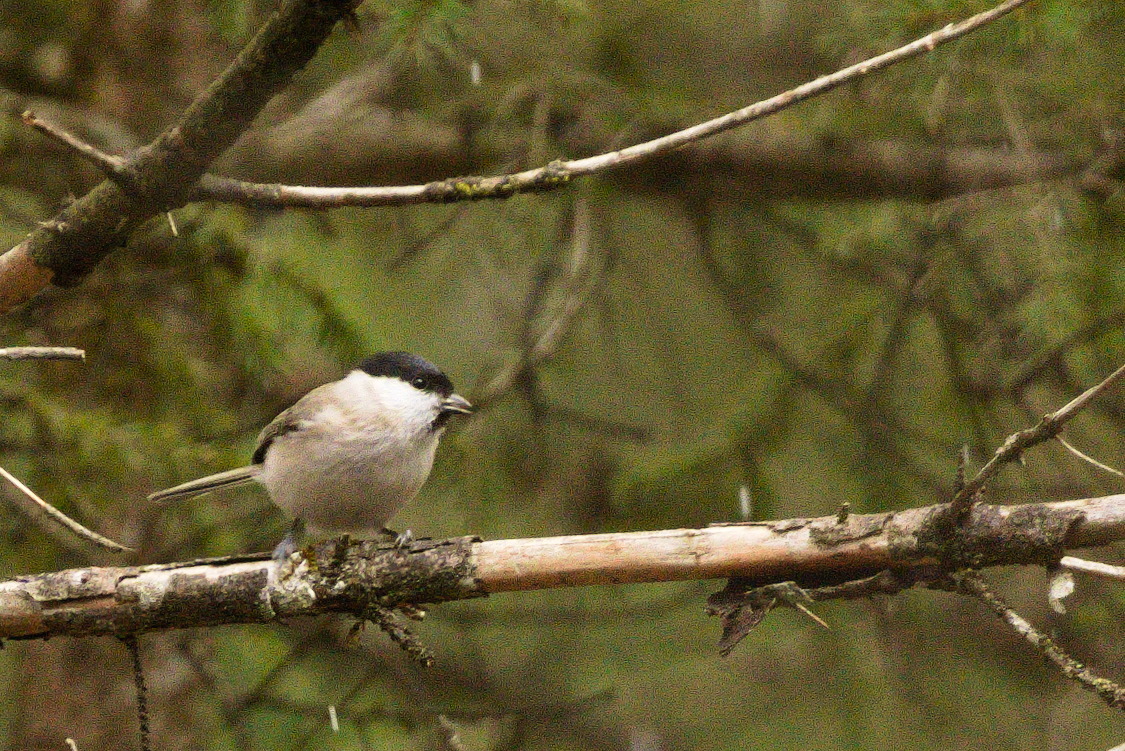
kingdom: Animalia
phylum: Chordata
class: Aves
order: Passeriformes
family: Paridae
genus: Poecile
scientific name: Poecile palustris
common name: Marsh tit
